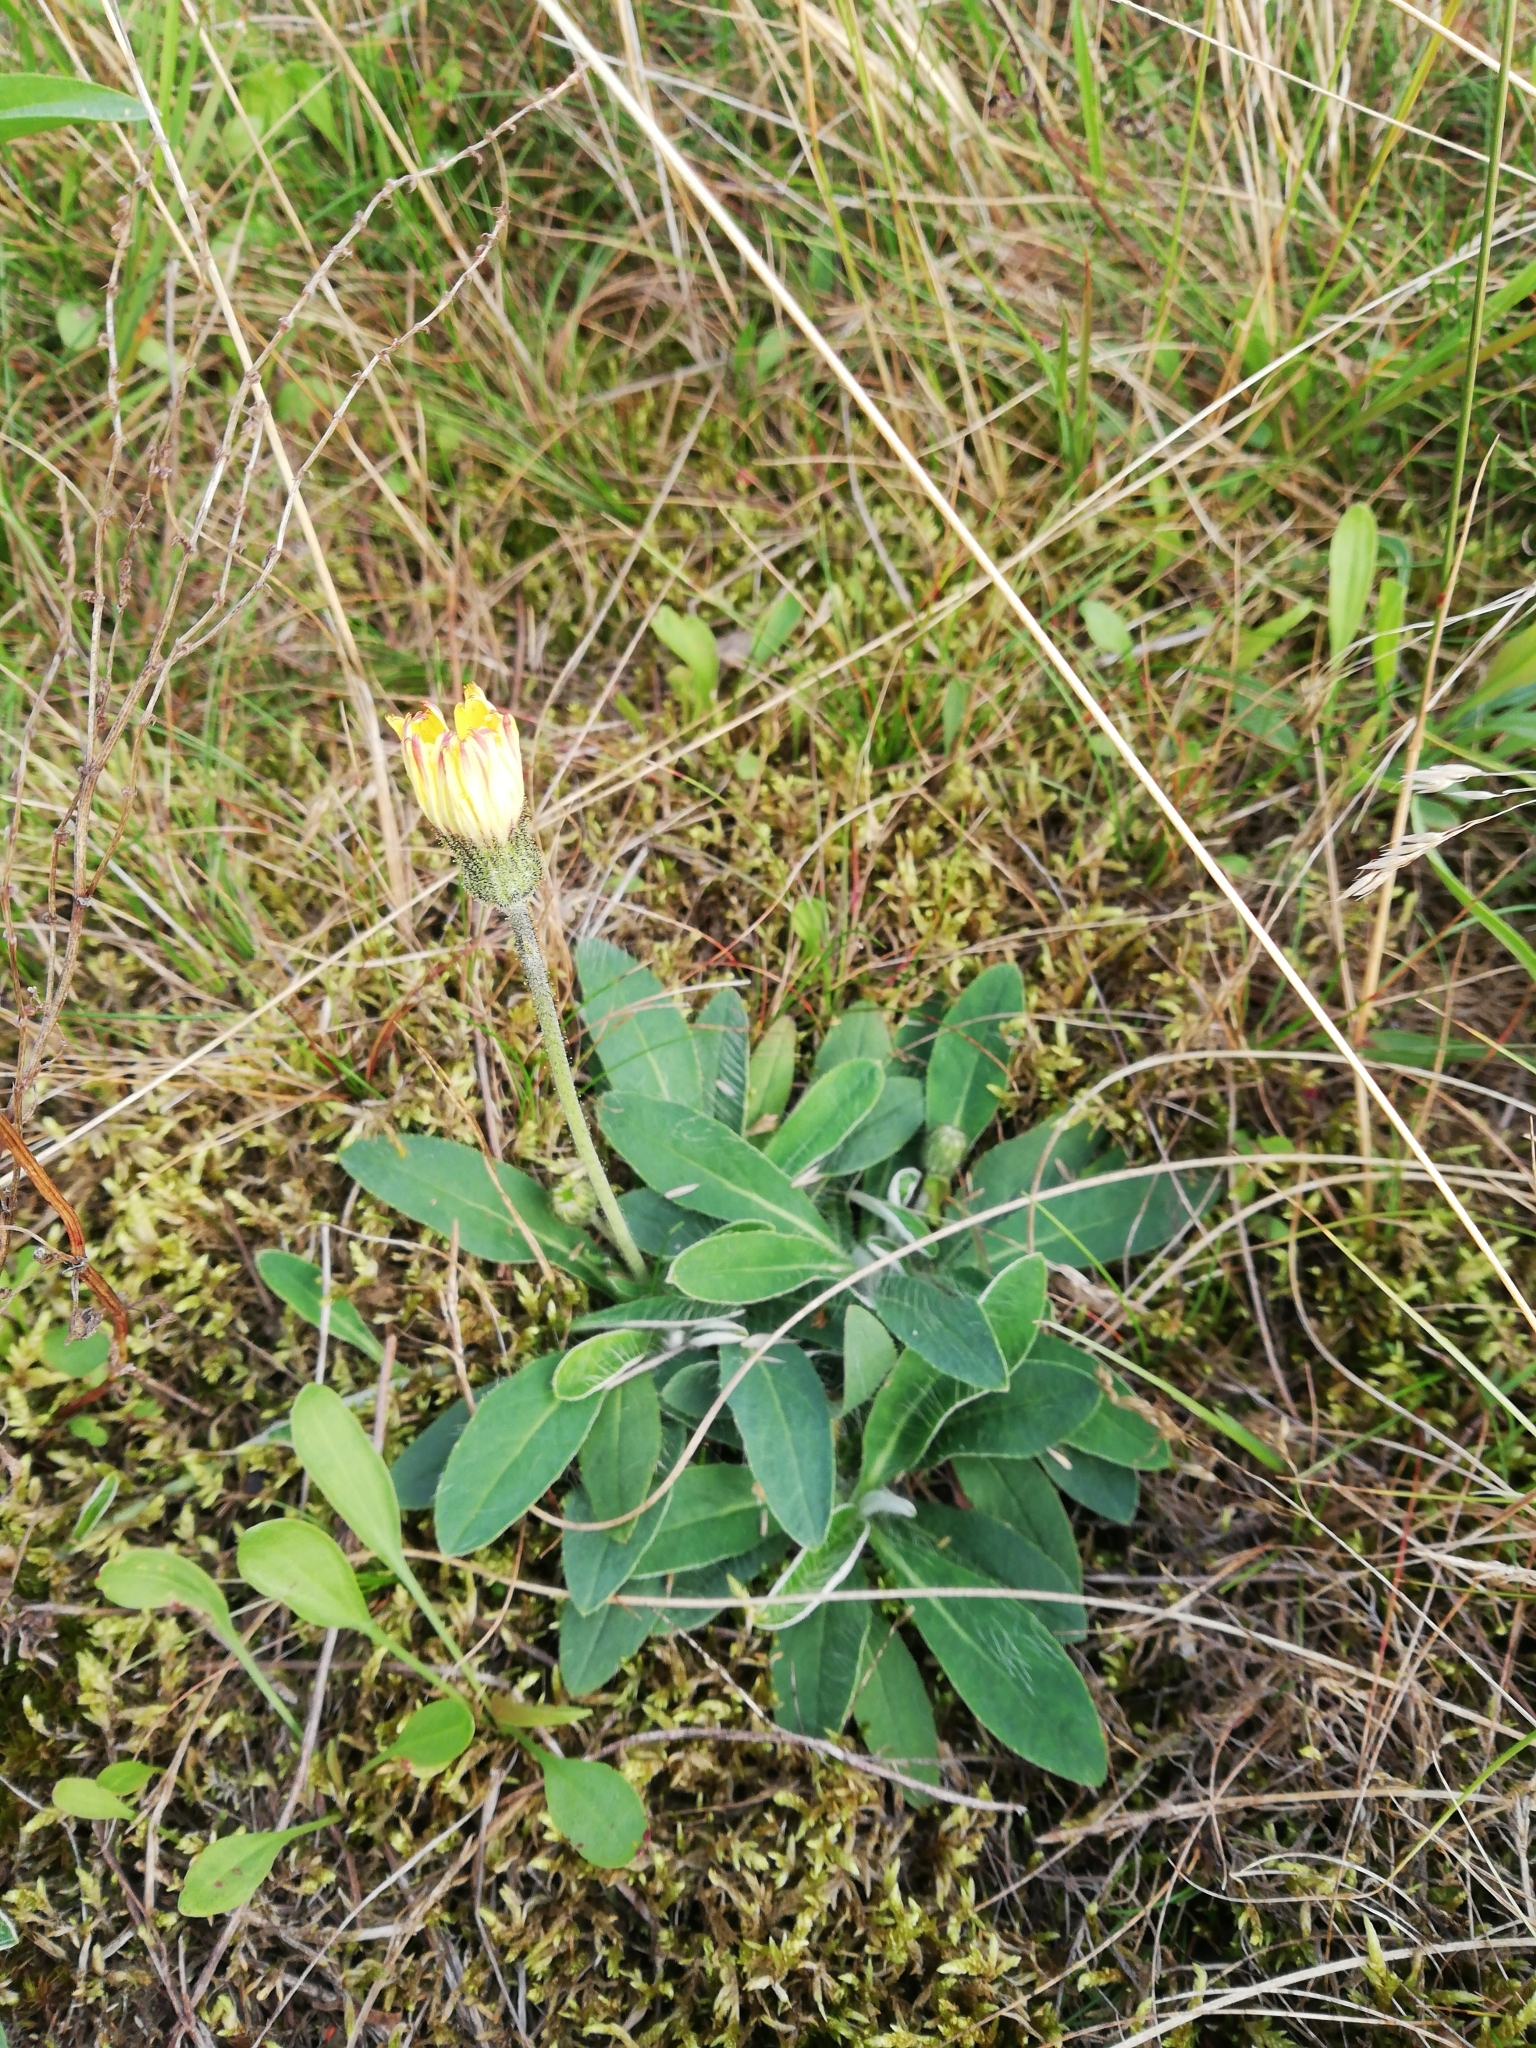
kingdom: Plantae
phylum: Tracheophyta
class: Magnoliopsida
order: Asterales
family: Asteraceae
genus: Pilosella
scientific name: Pilosella officinarum
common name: Mouse-ear hawkweed
